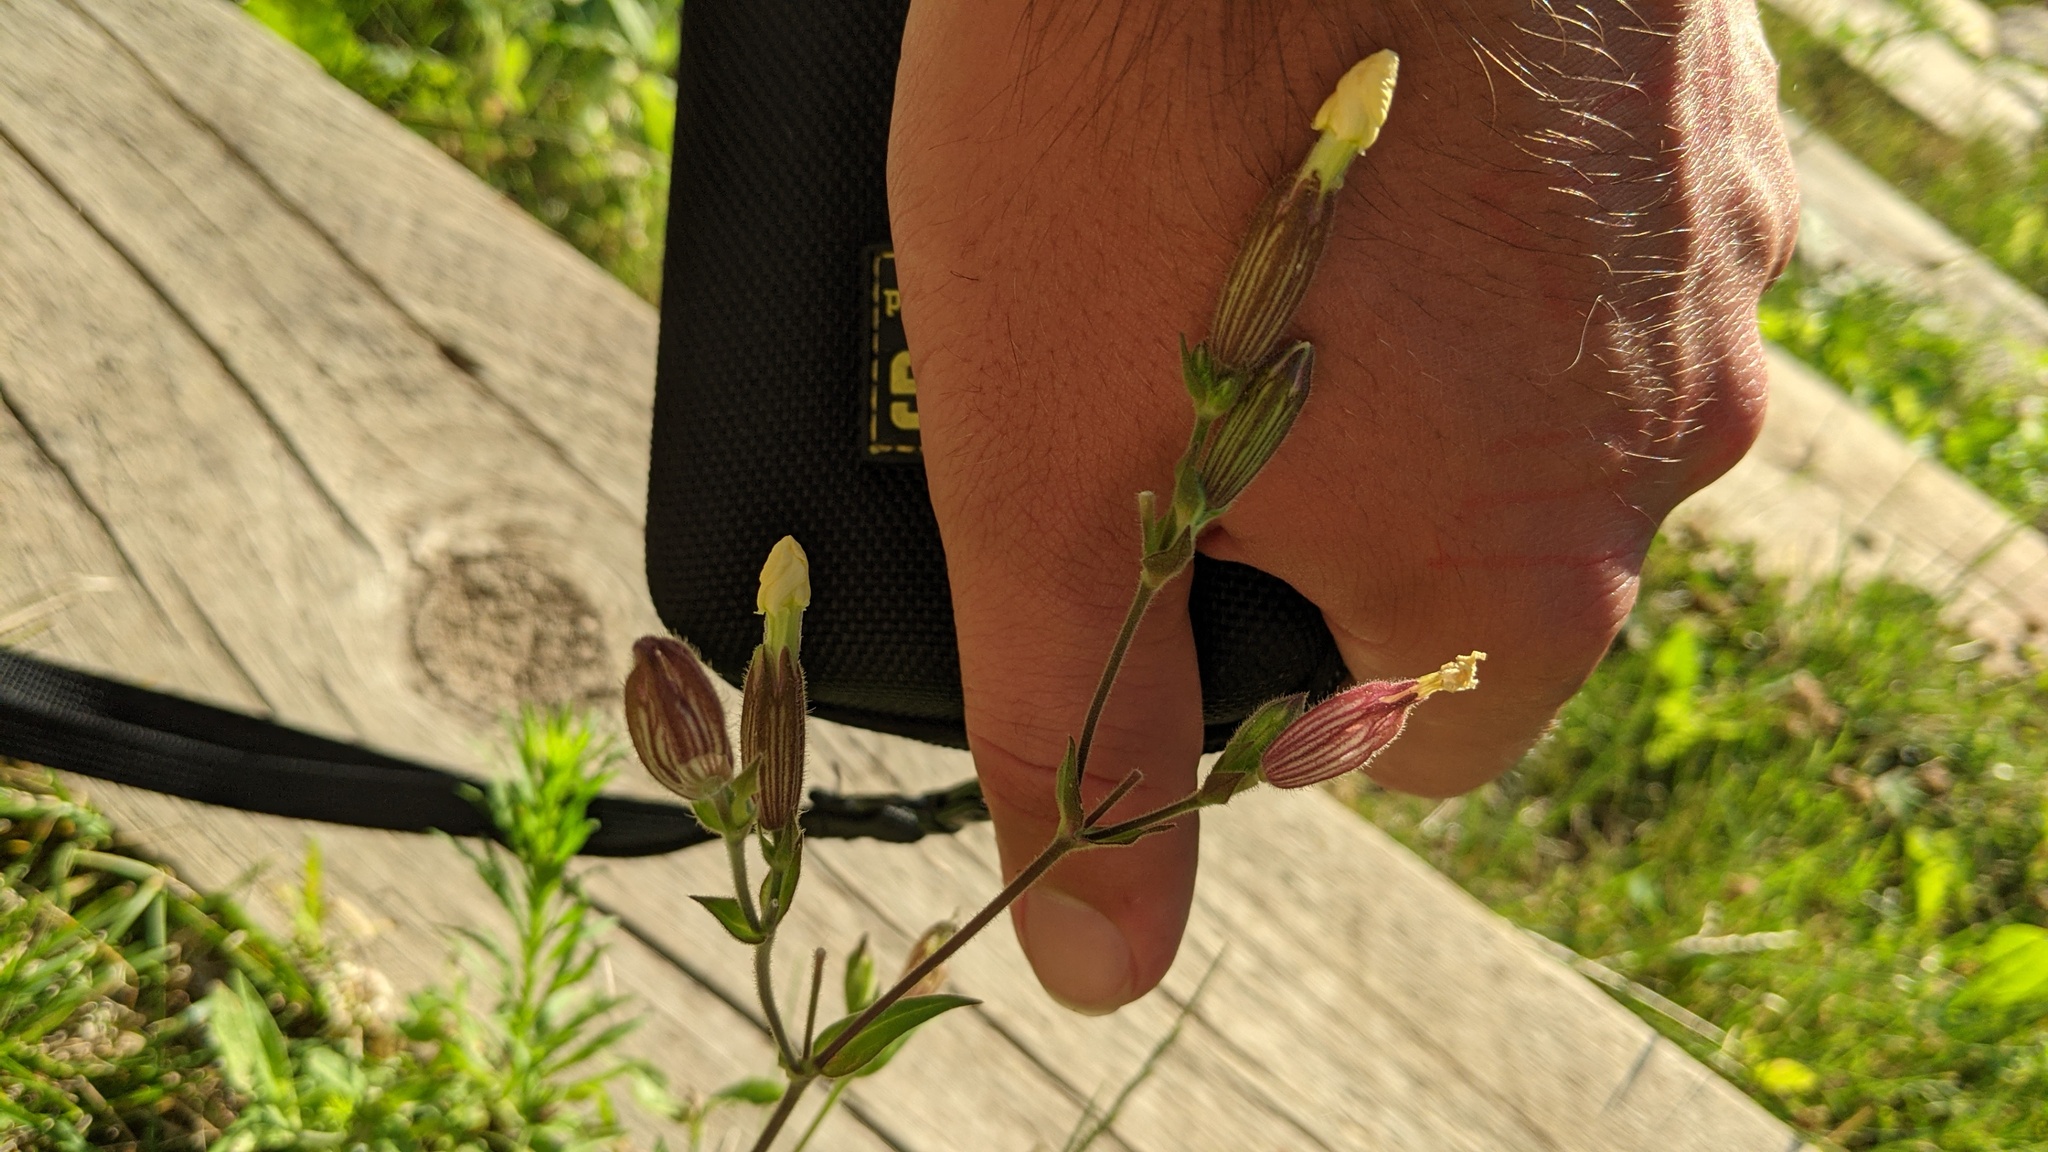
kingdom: Plantae
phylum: Tracheophyta
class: Magnoliopsida
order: Caryophyllales
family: Caryophyllaceae
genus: Silene
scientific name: Silene latifolia
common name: White campion
